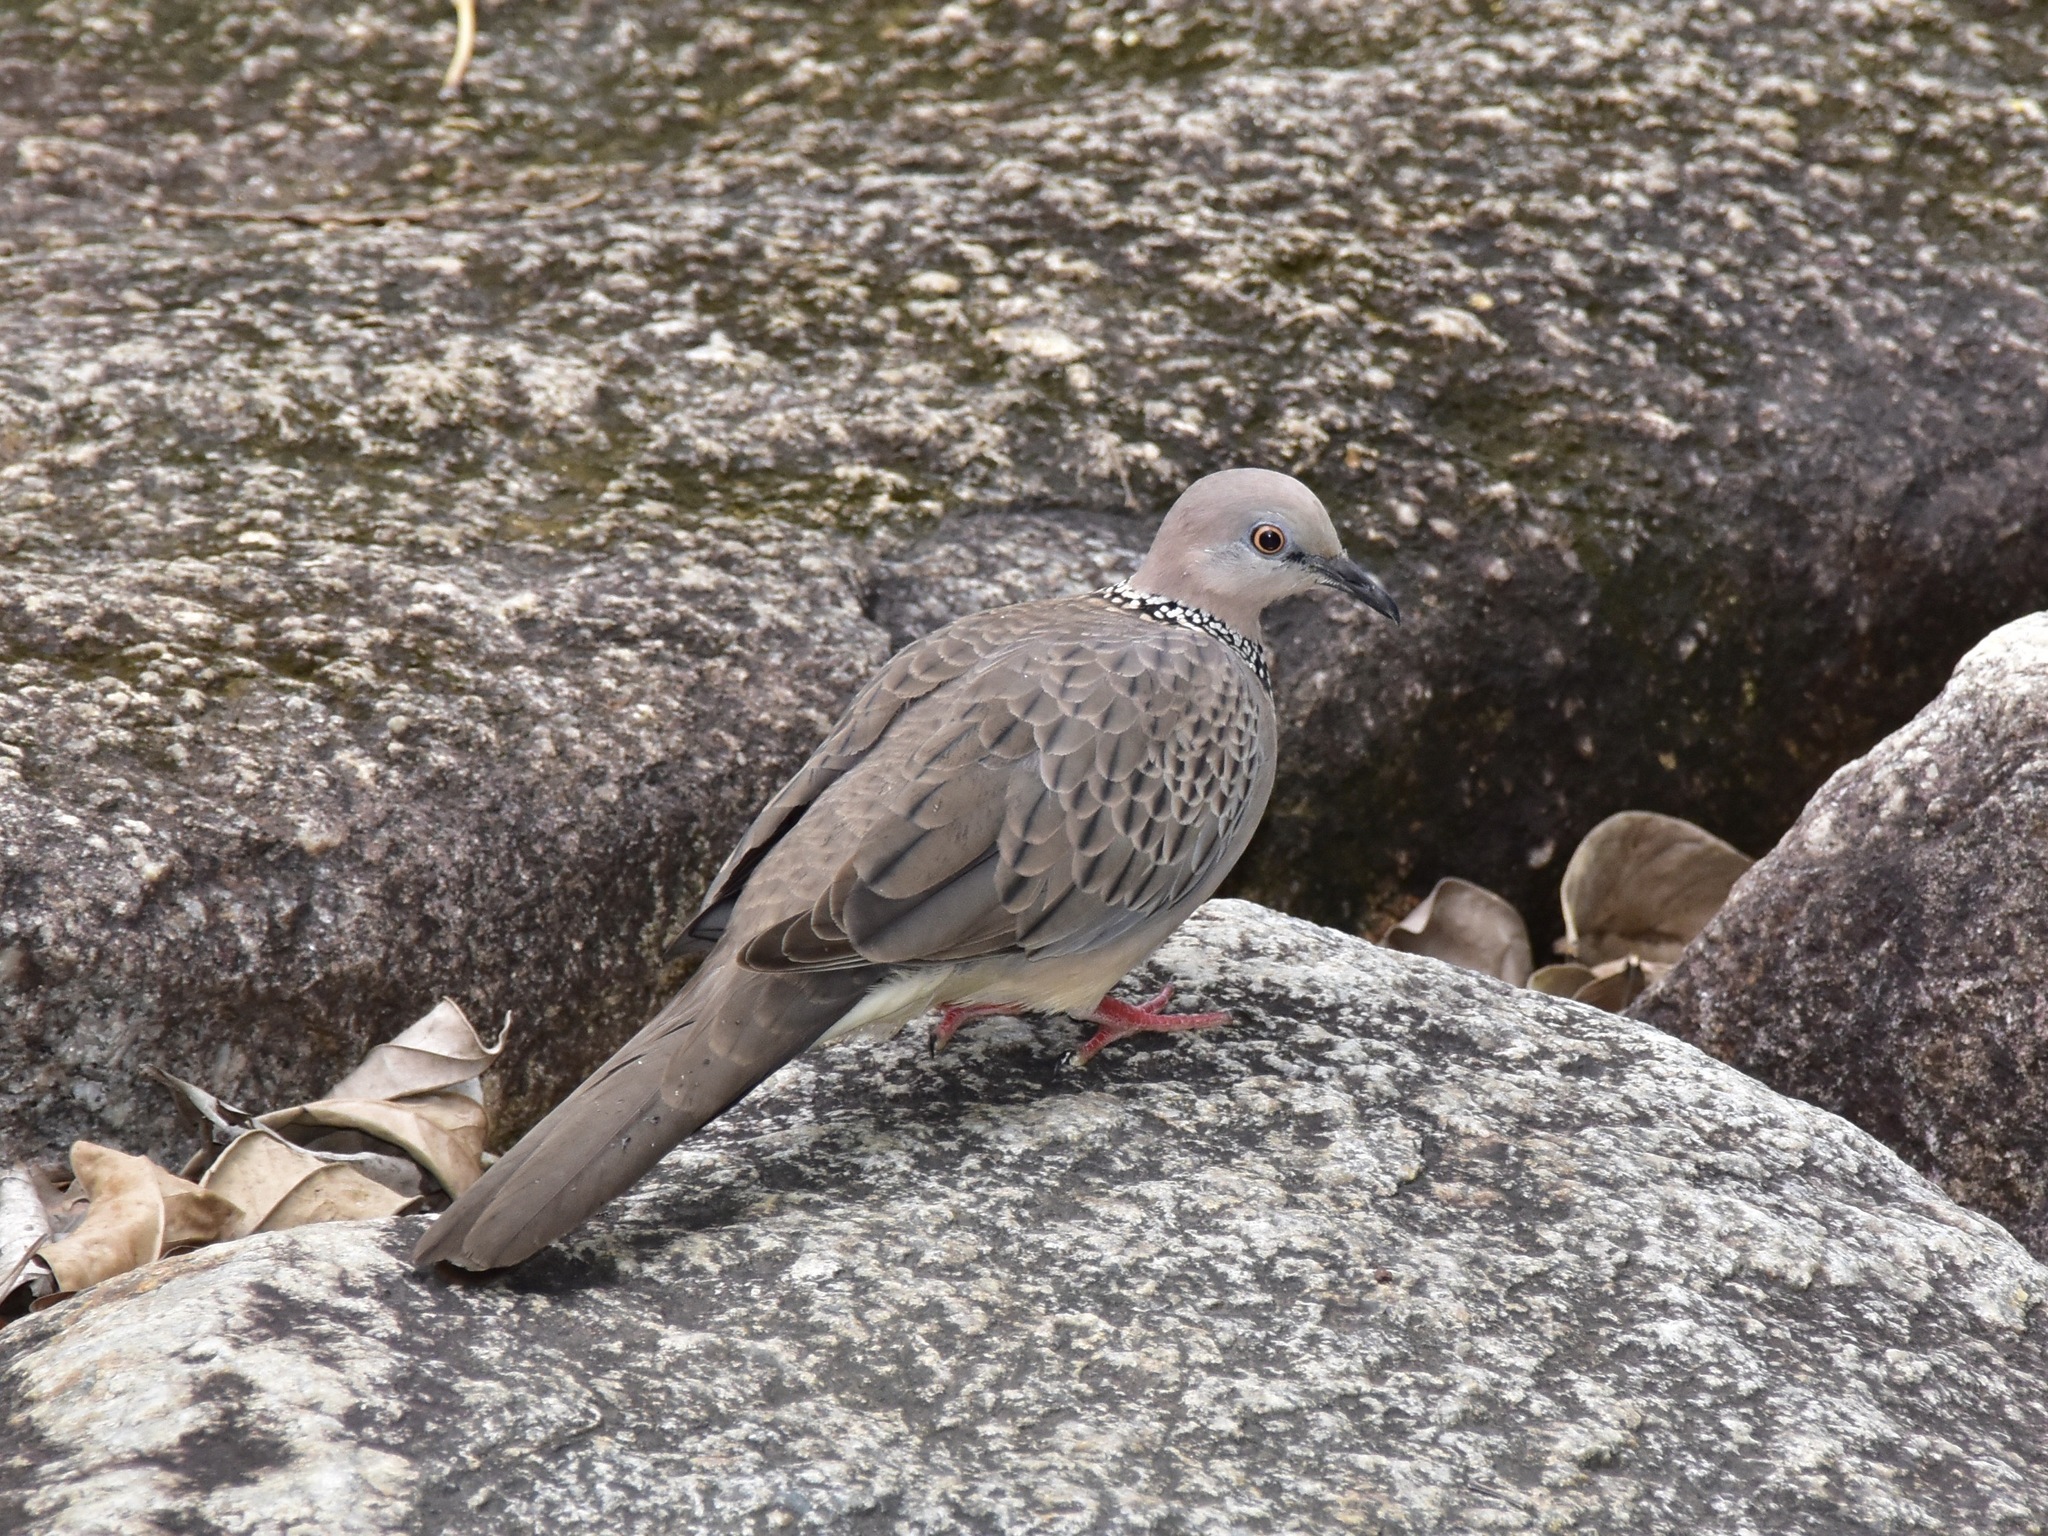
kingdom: Animalia
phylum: Chordata
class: Aves
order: Columbiformes
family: Columbidae
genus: Spilopelia
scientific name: Spilopelia chinensis
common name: Spotted dove
